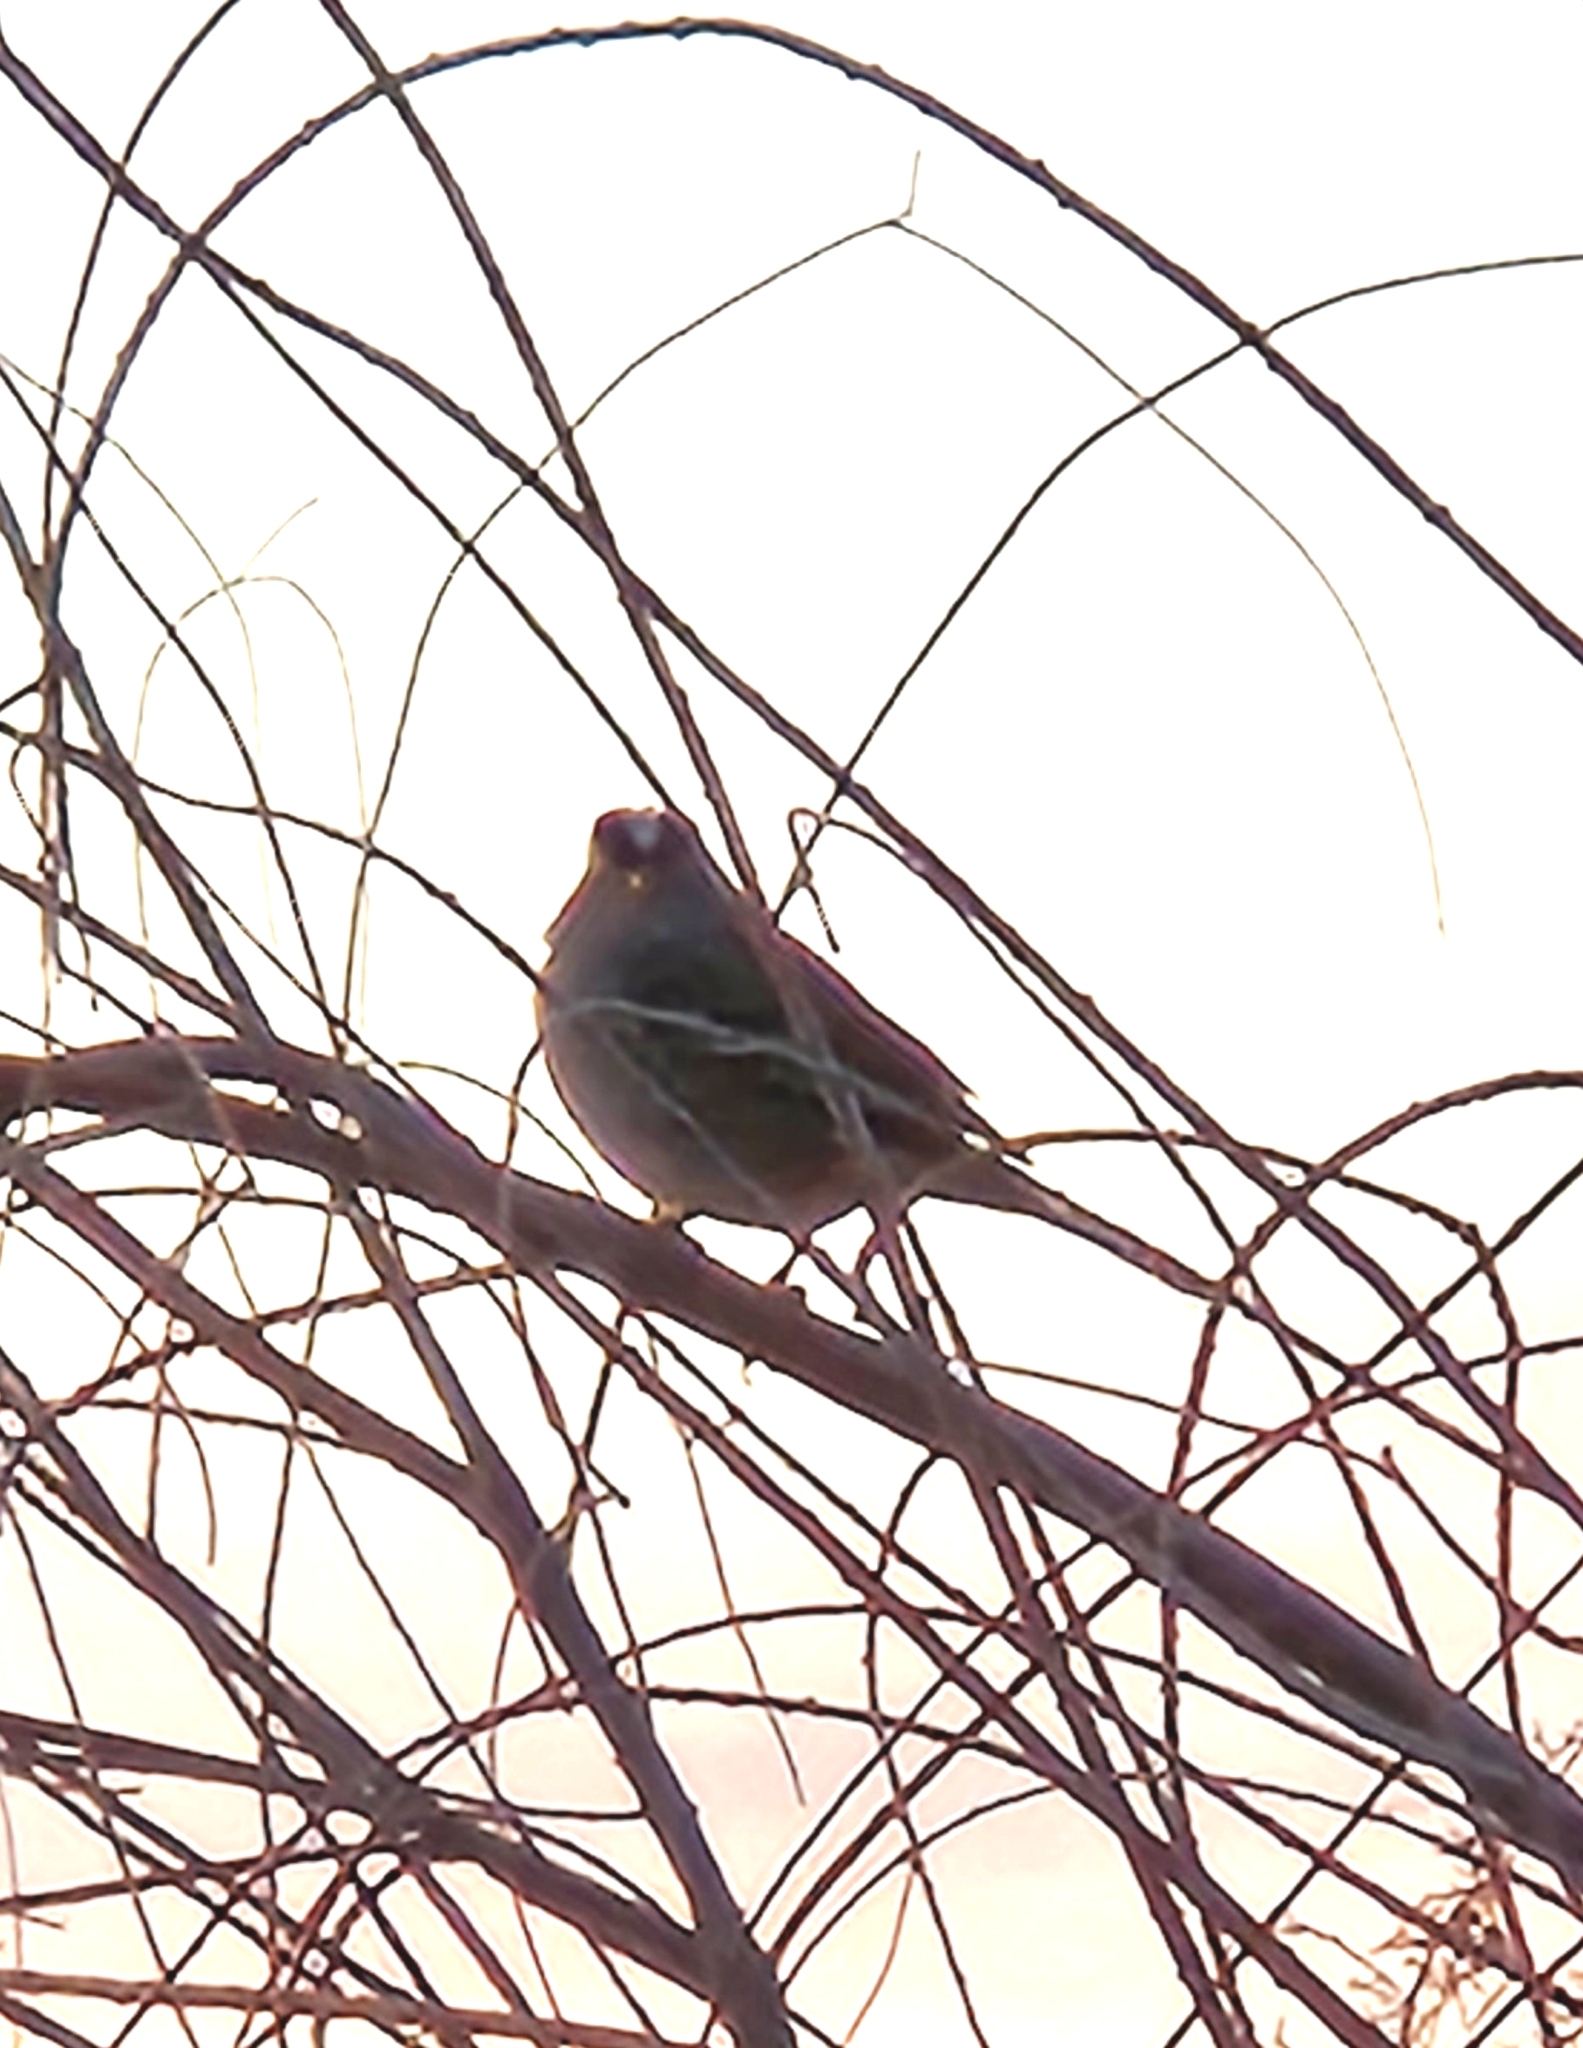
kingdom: Animalia
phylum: Chordata
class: Aves
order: Passeriformes
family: Passerellidae
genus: Zonotrichia
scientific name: Zonotrichia leucophrys
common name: White-crowned sparrow
